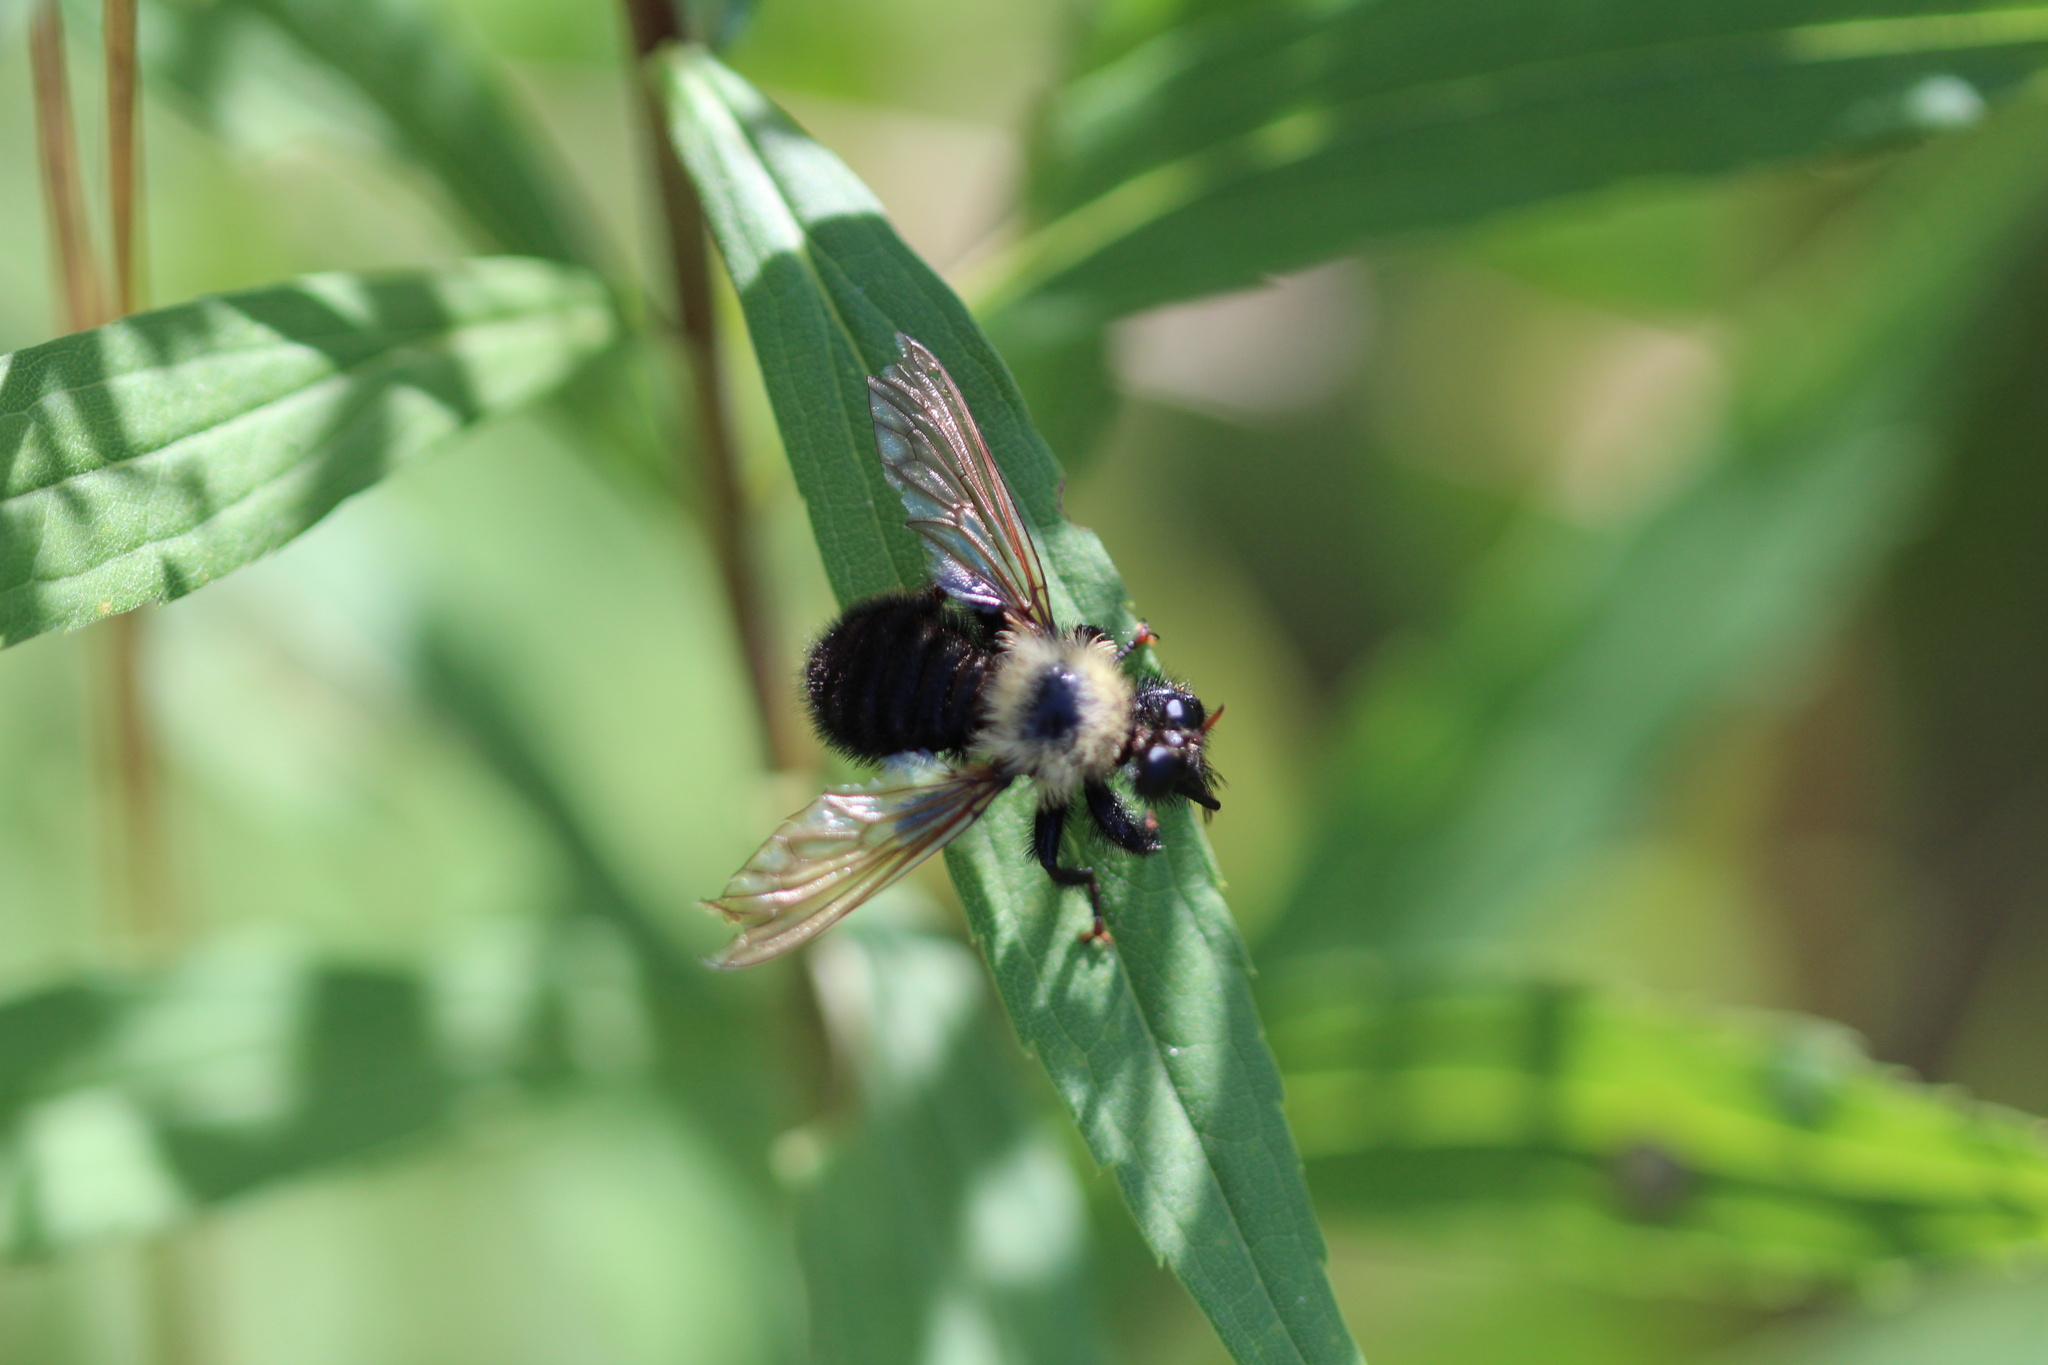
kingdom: Animalia
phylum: Arthropoda
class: Insecta
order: Diptera
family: Asilidae
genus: Laphria
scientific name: Laphria thoracica
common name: Bumble bee mimic robber fly
